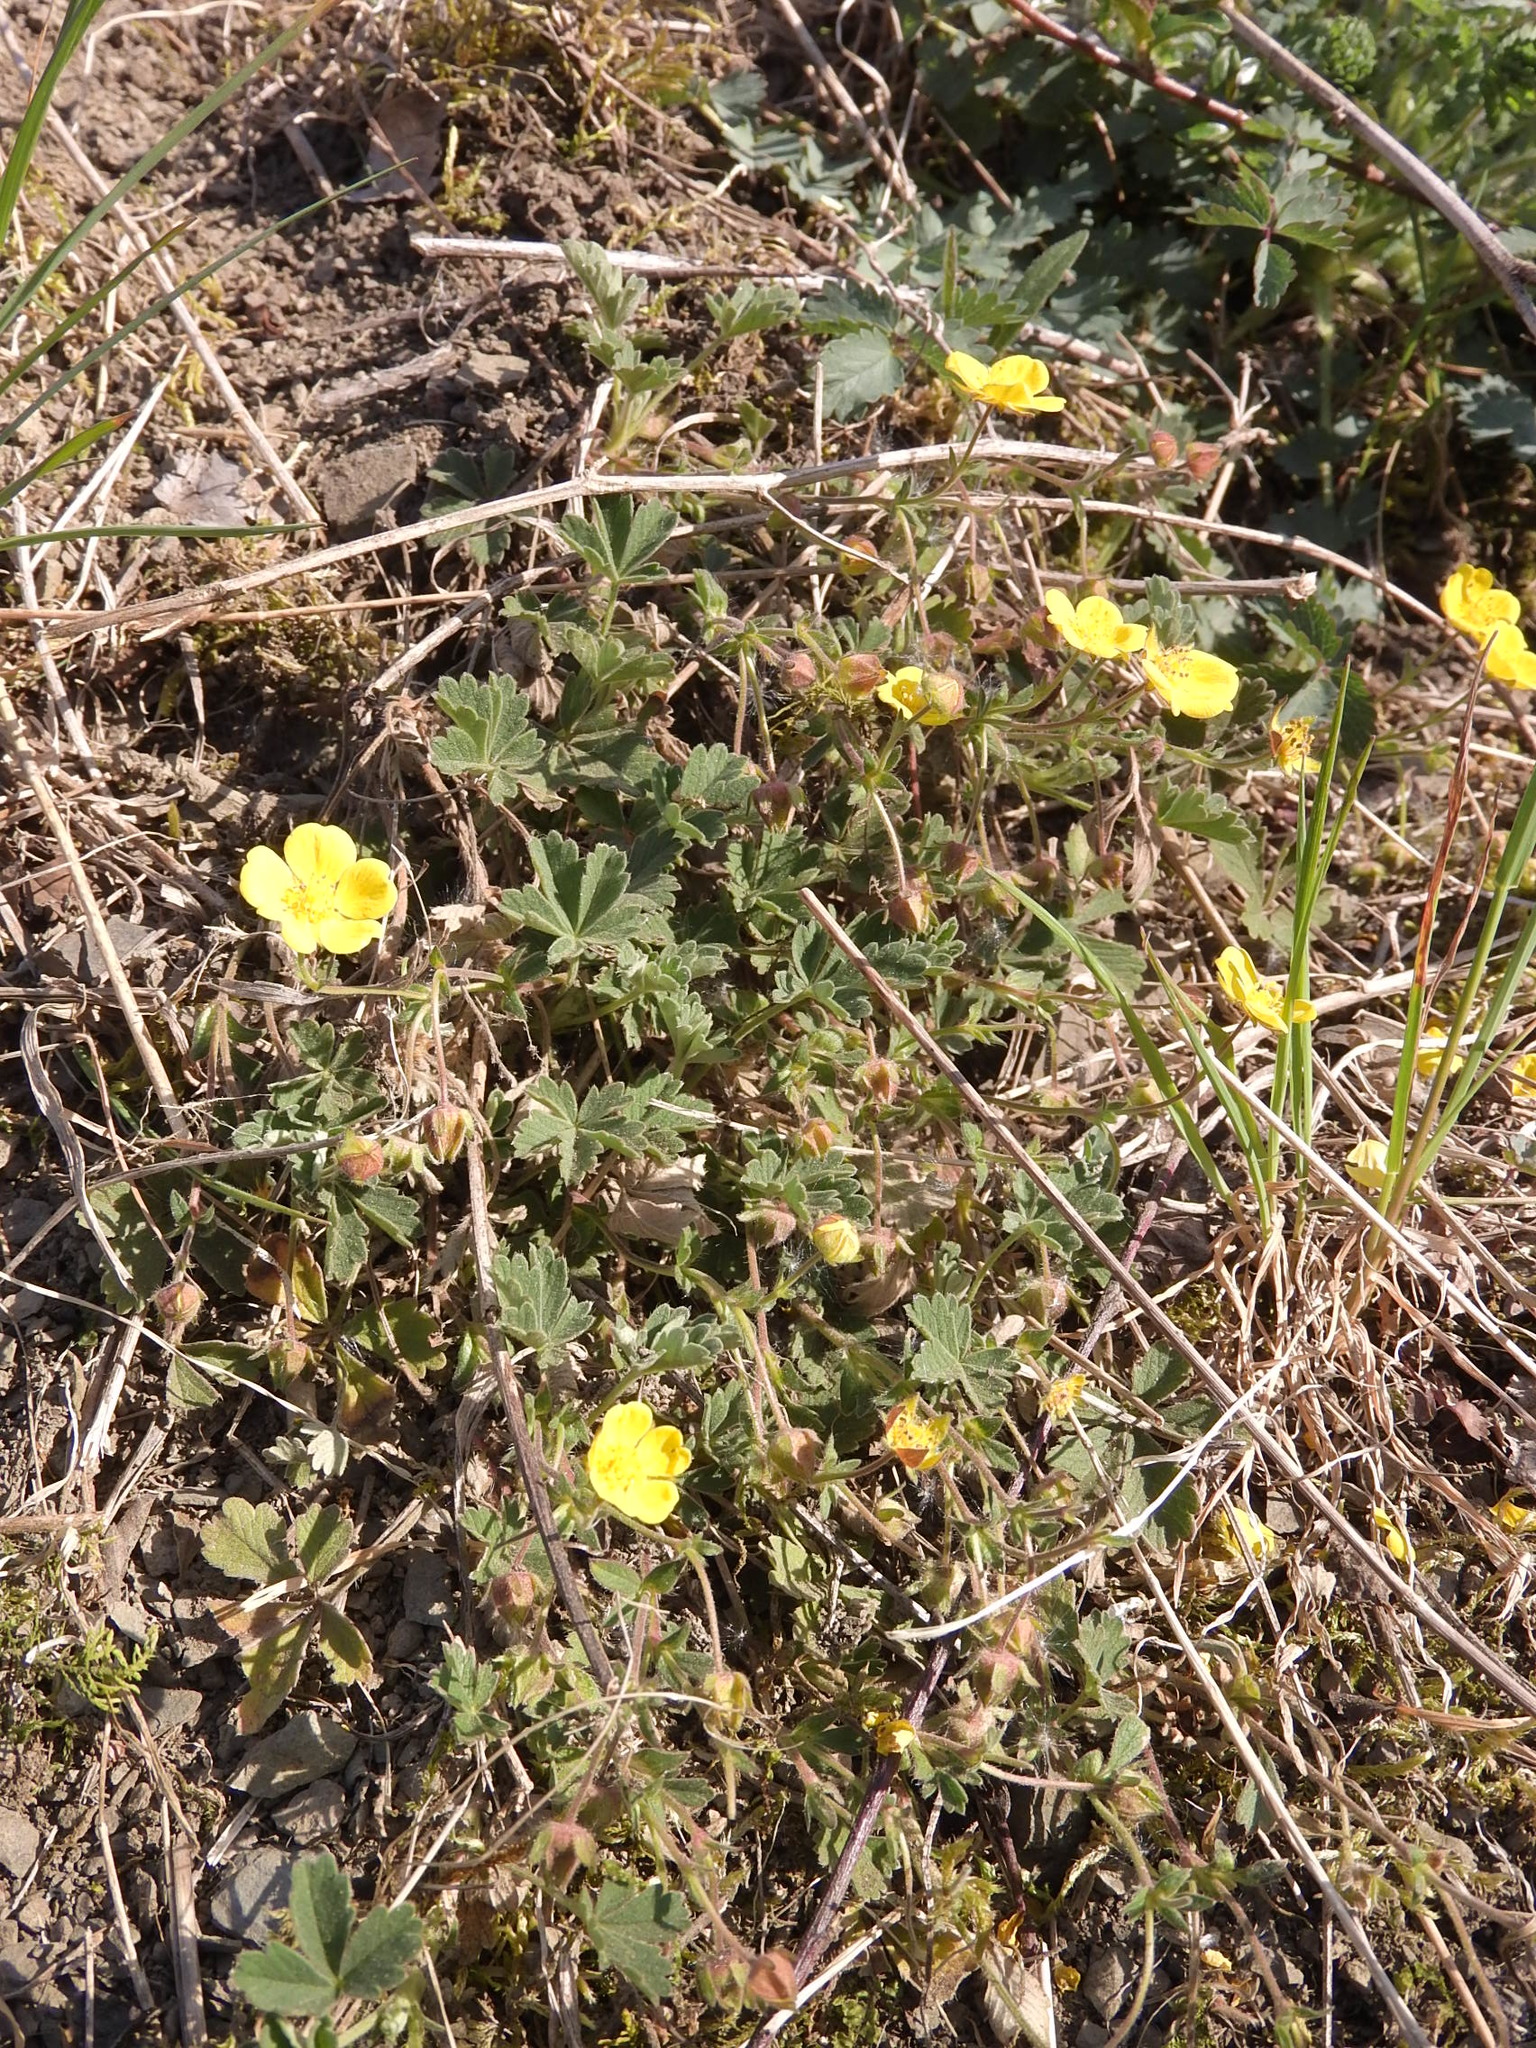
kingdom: Plantae
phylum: Tracheophyta
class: Magnoliopsida
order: Rosales
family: Rosaceae
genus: Potentilla
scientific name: Potentilla incana
